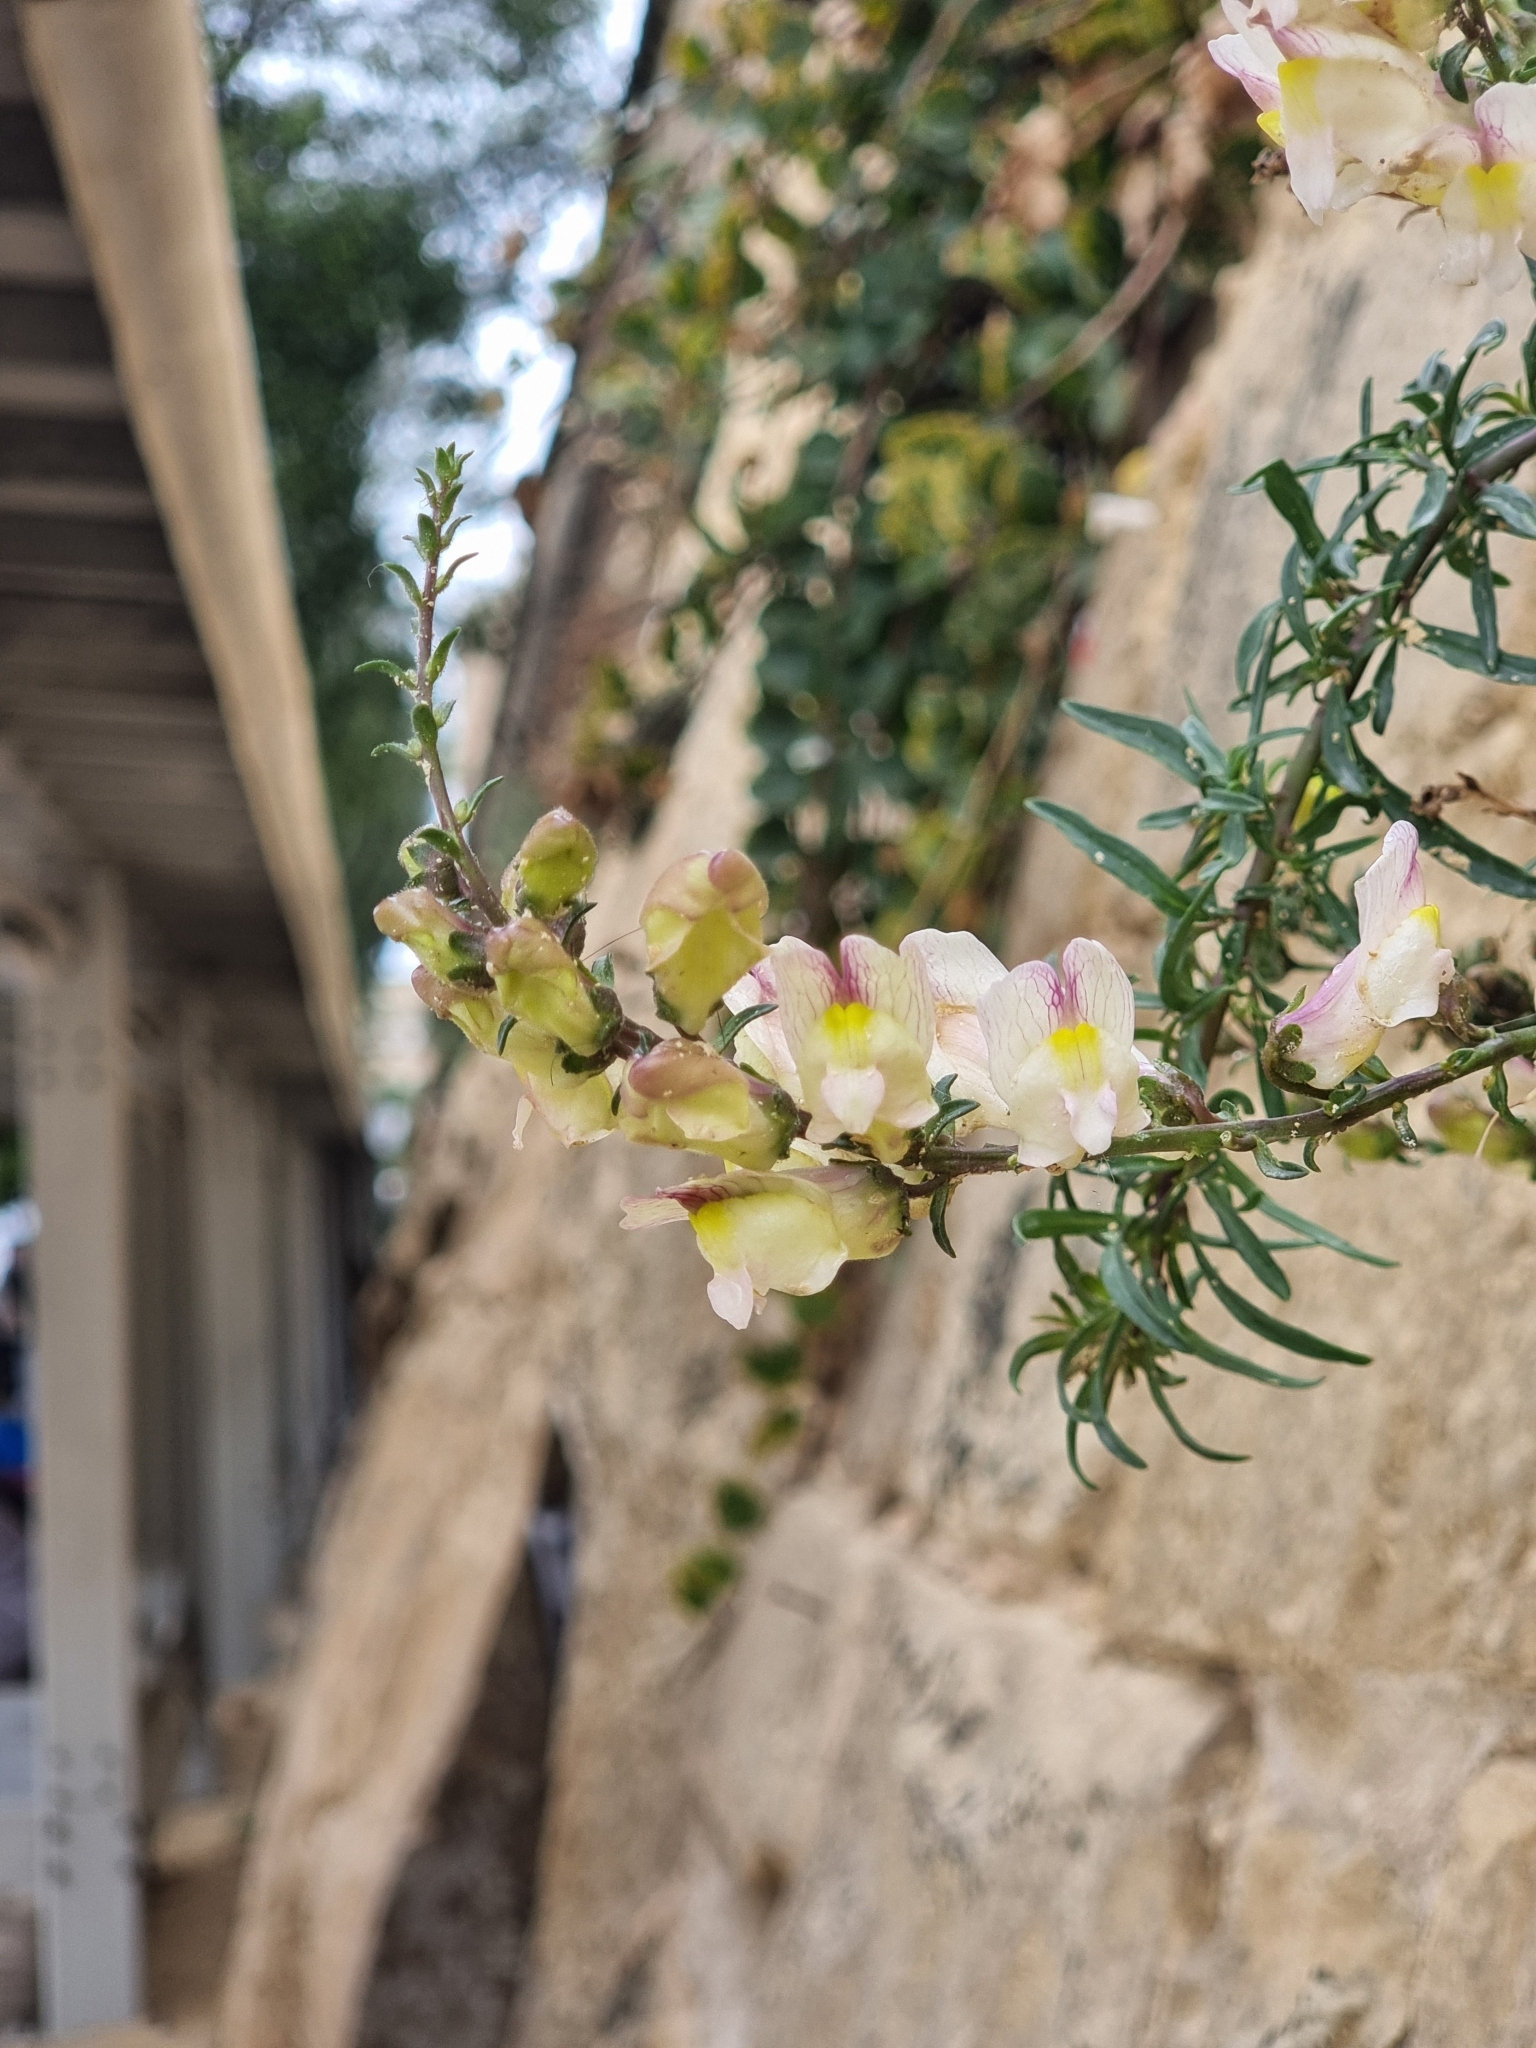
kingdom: Plantae
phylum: Tracheophyta
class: Magnoliopsida
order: Lamiales
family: Plantaginaceae
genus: Antirrhinum
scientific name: Antirrhinum siculum
